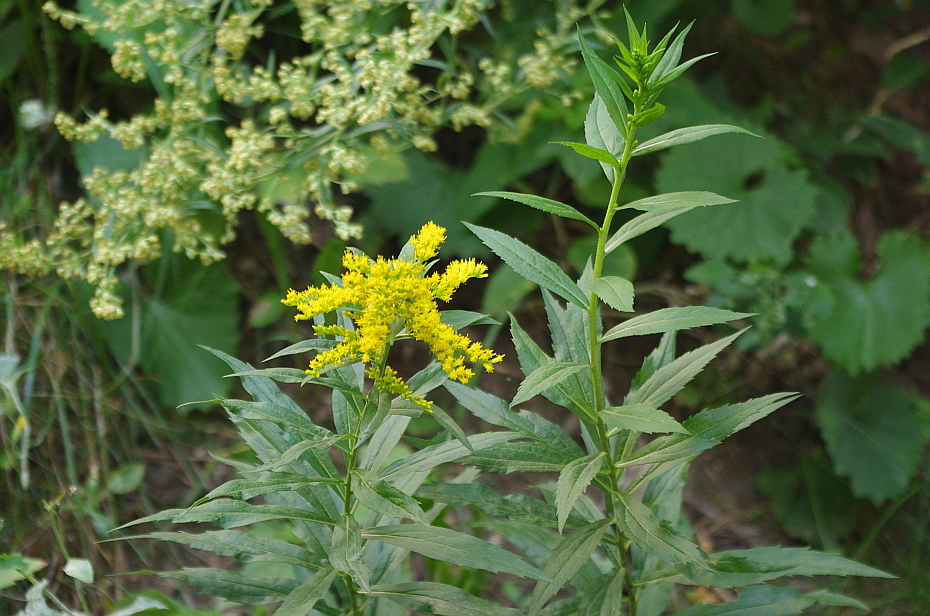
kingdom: Plantae
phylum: Tracheophyta
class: Magnoliopsida
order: Asterales
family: Asteraceae
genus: Solidago
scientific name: Solidago canadensis
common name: Canada goldenrod
